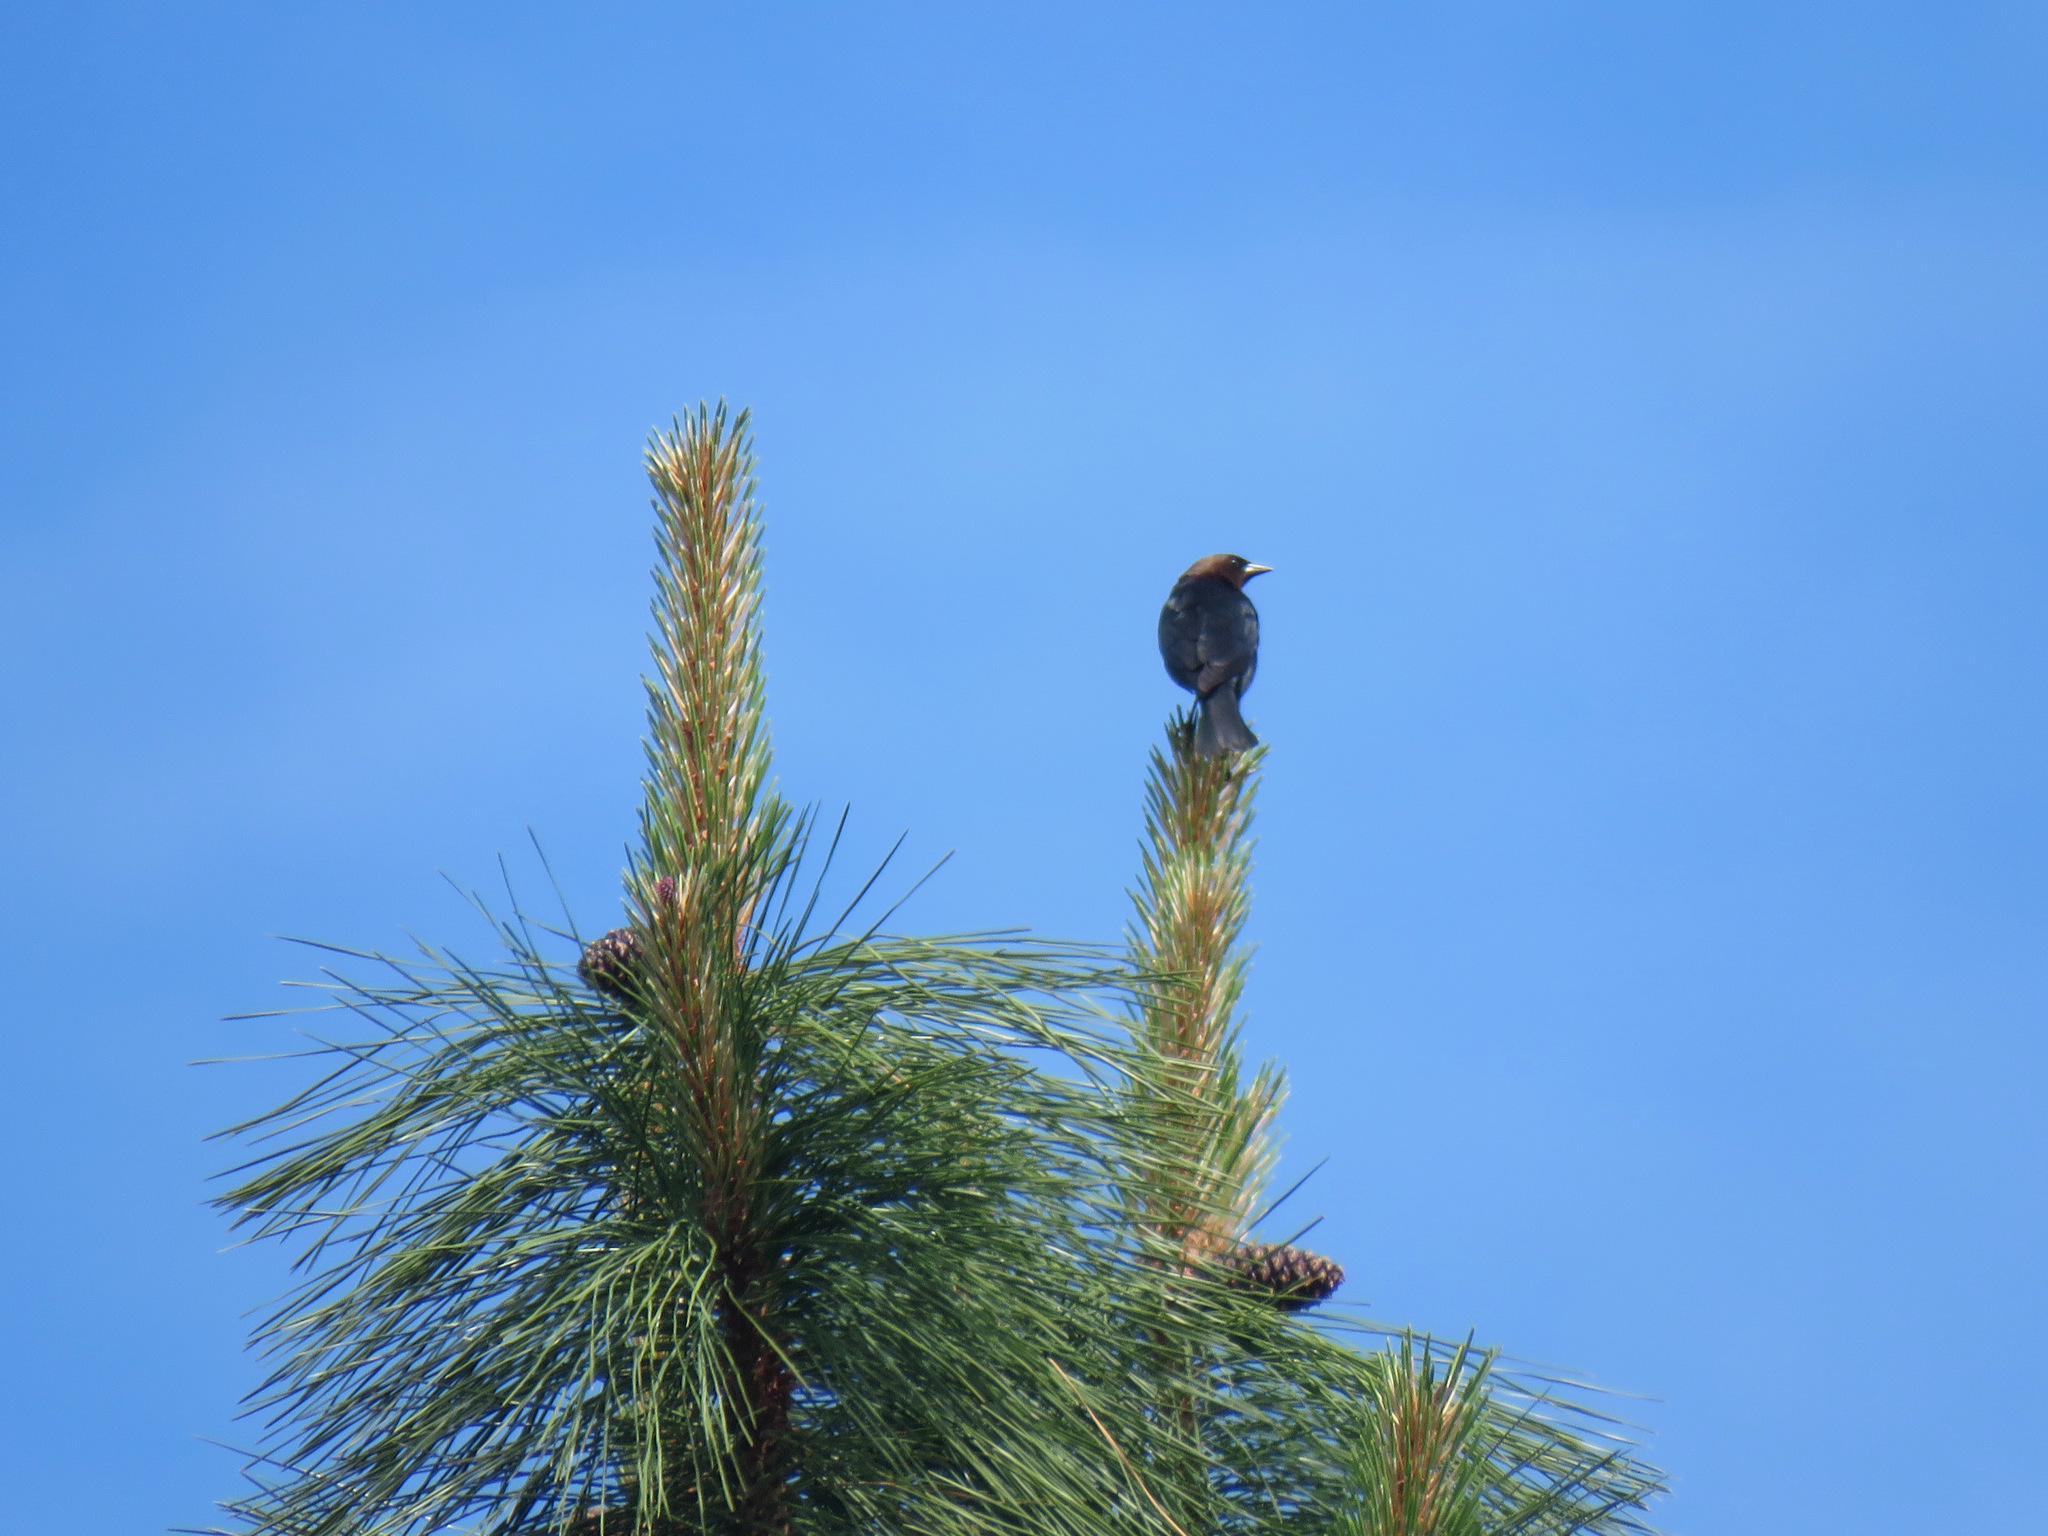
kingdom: Animalia
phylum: Chordata
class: Aves
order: Passeriformes
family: Icteridae
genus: Molothrus
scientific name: Molothrus ater
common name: Brown-headed cowbird
